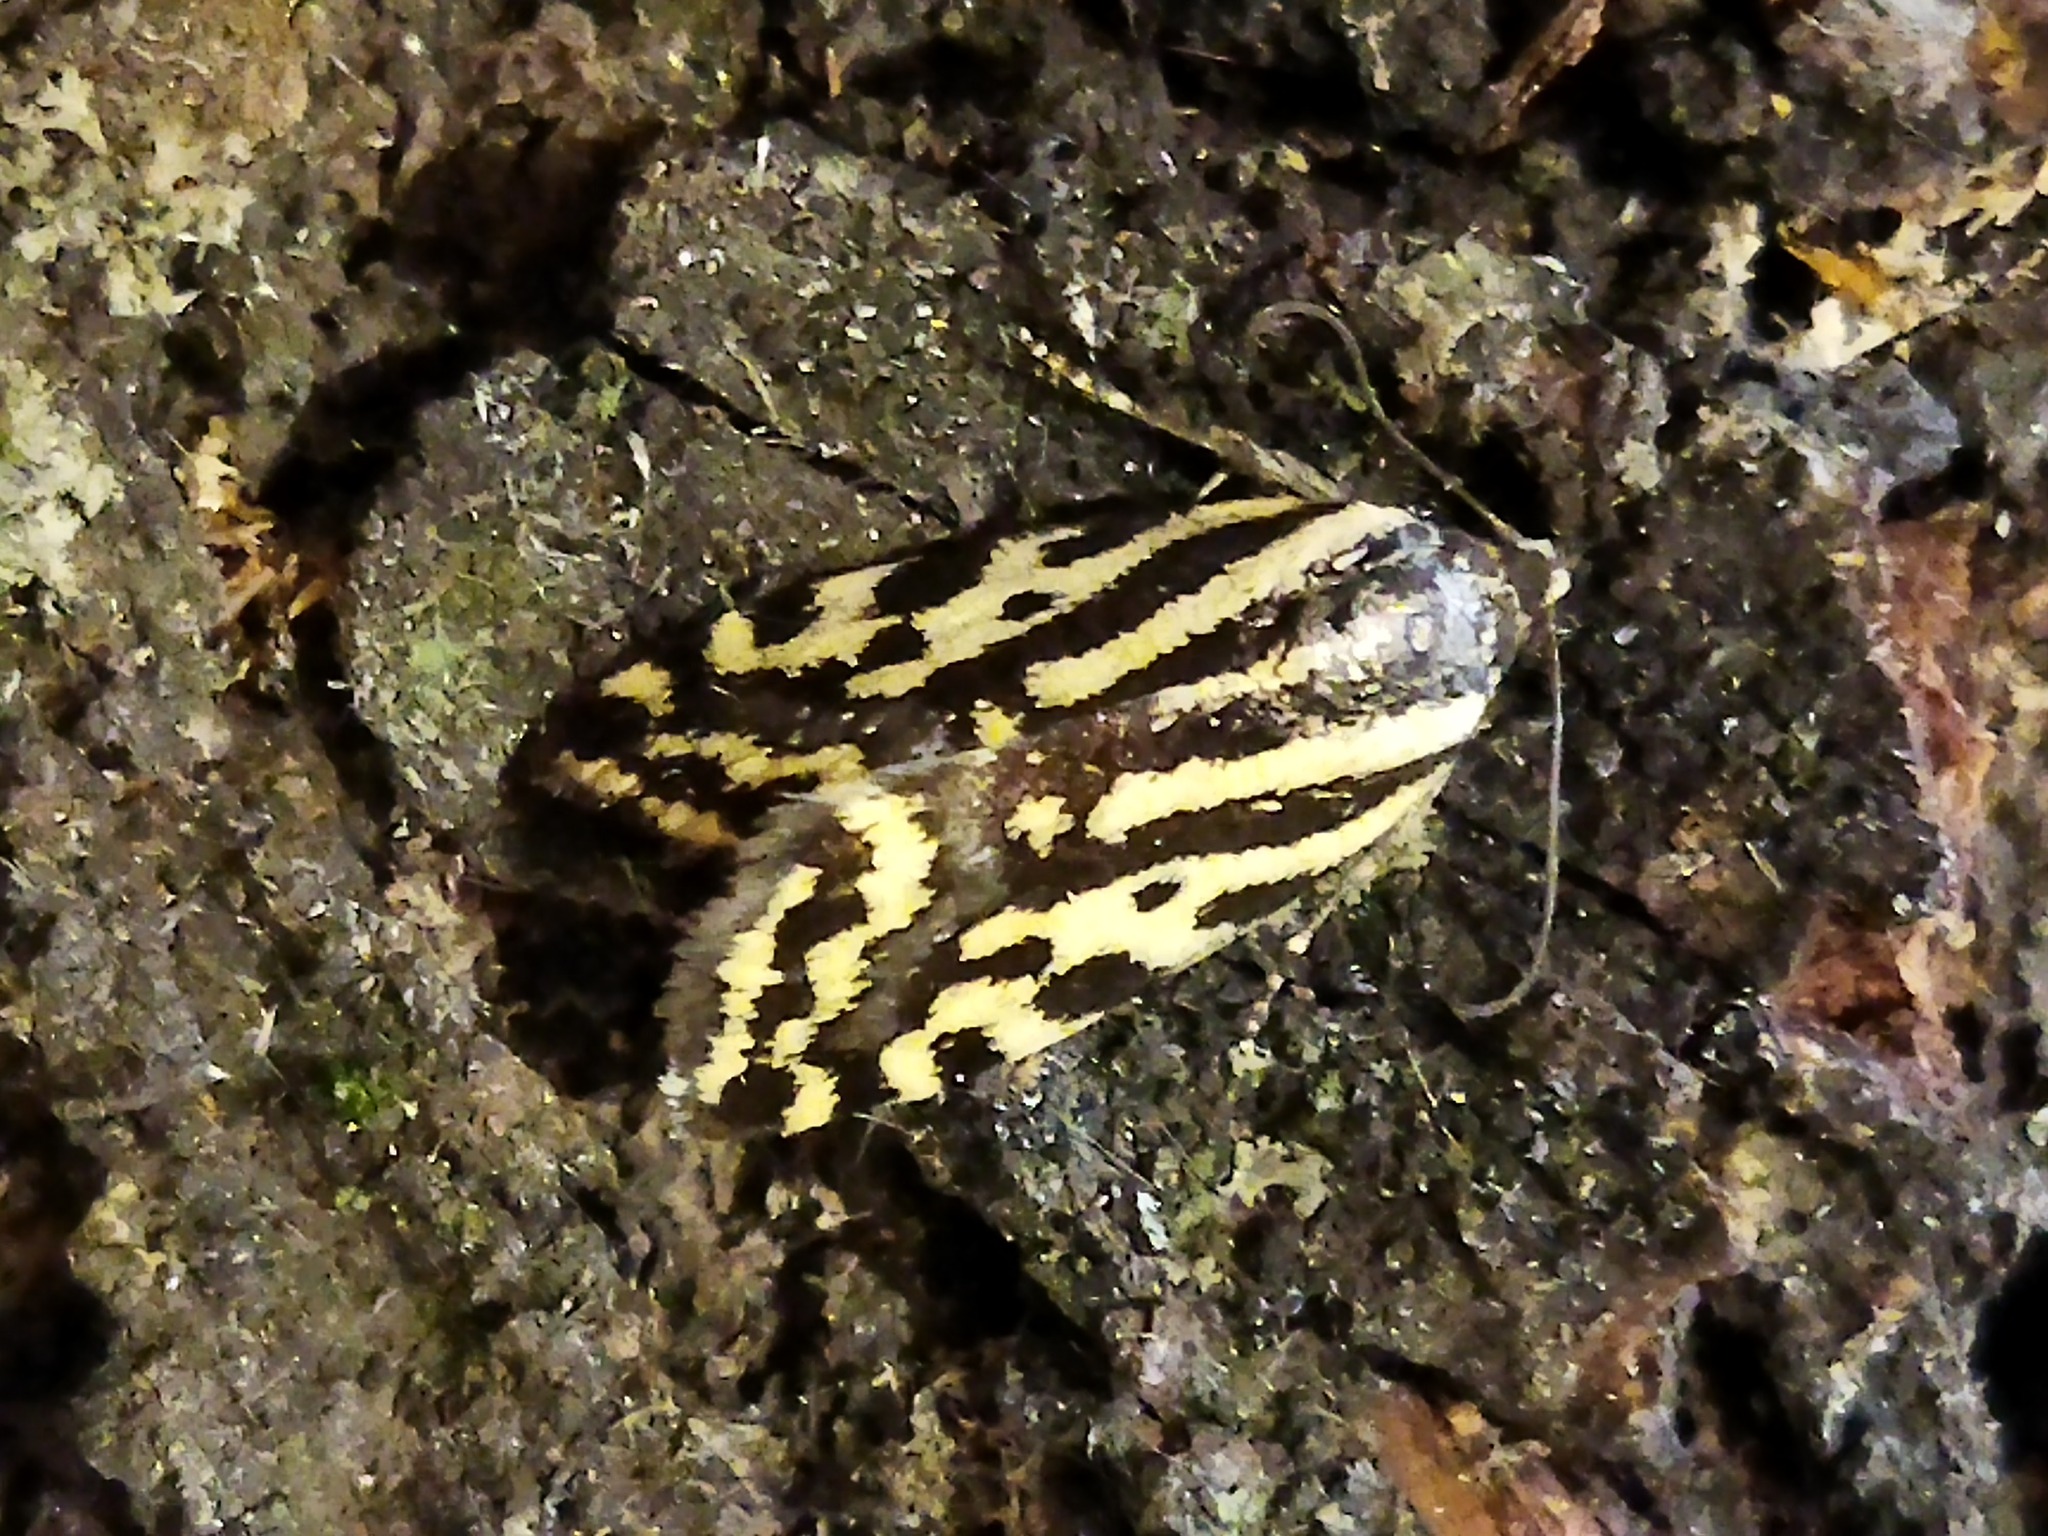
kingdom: Animalia
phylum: Arthropoda
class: Insecta
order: Lepidoptera
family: Noctuidae
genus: Acontia
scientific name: Acontia trabealis
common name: Spotted sulphur
